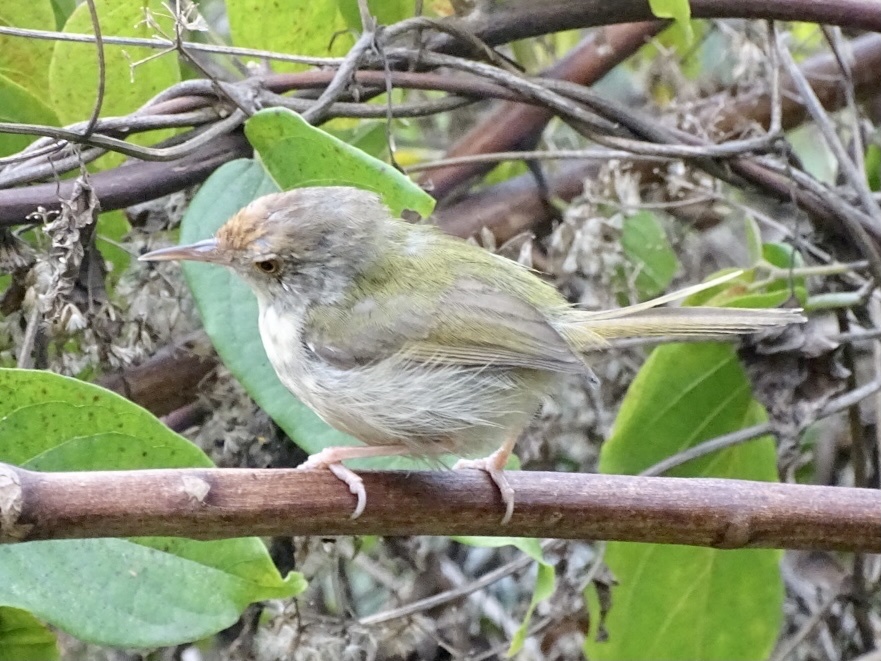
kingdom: Animalia
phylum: Chordata
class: Aves
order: Passeriformes
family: Cisticolidae
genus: Orthotomus
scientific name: Orthotomus sutorius
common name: Common tailorbird
